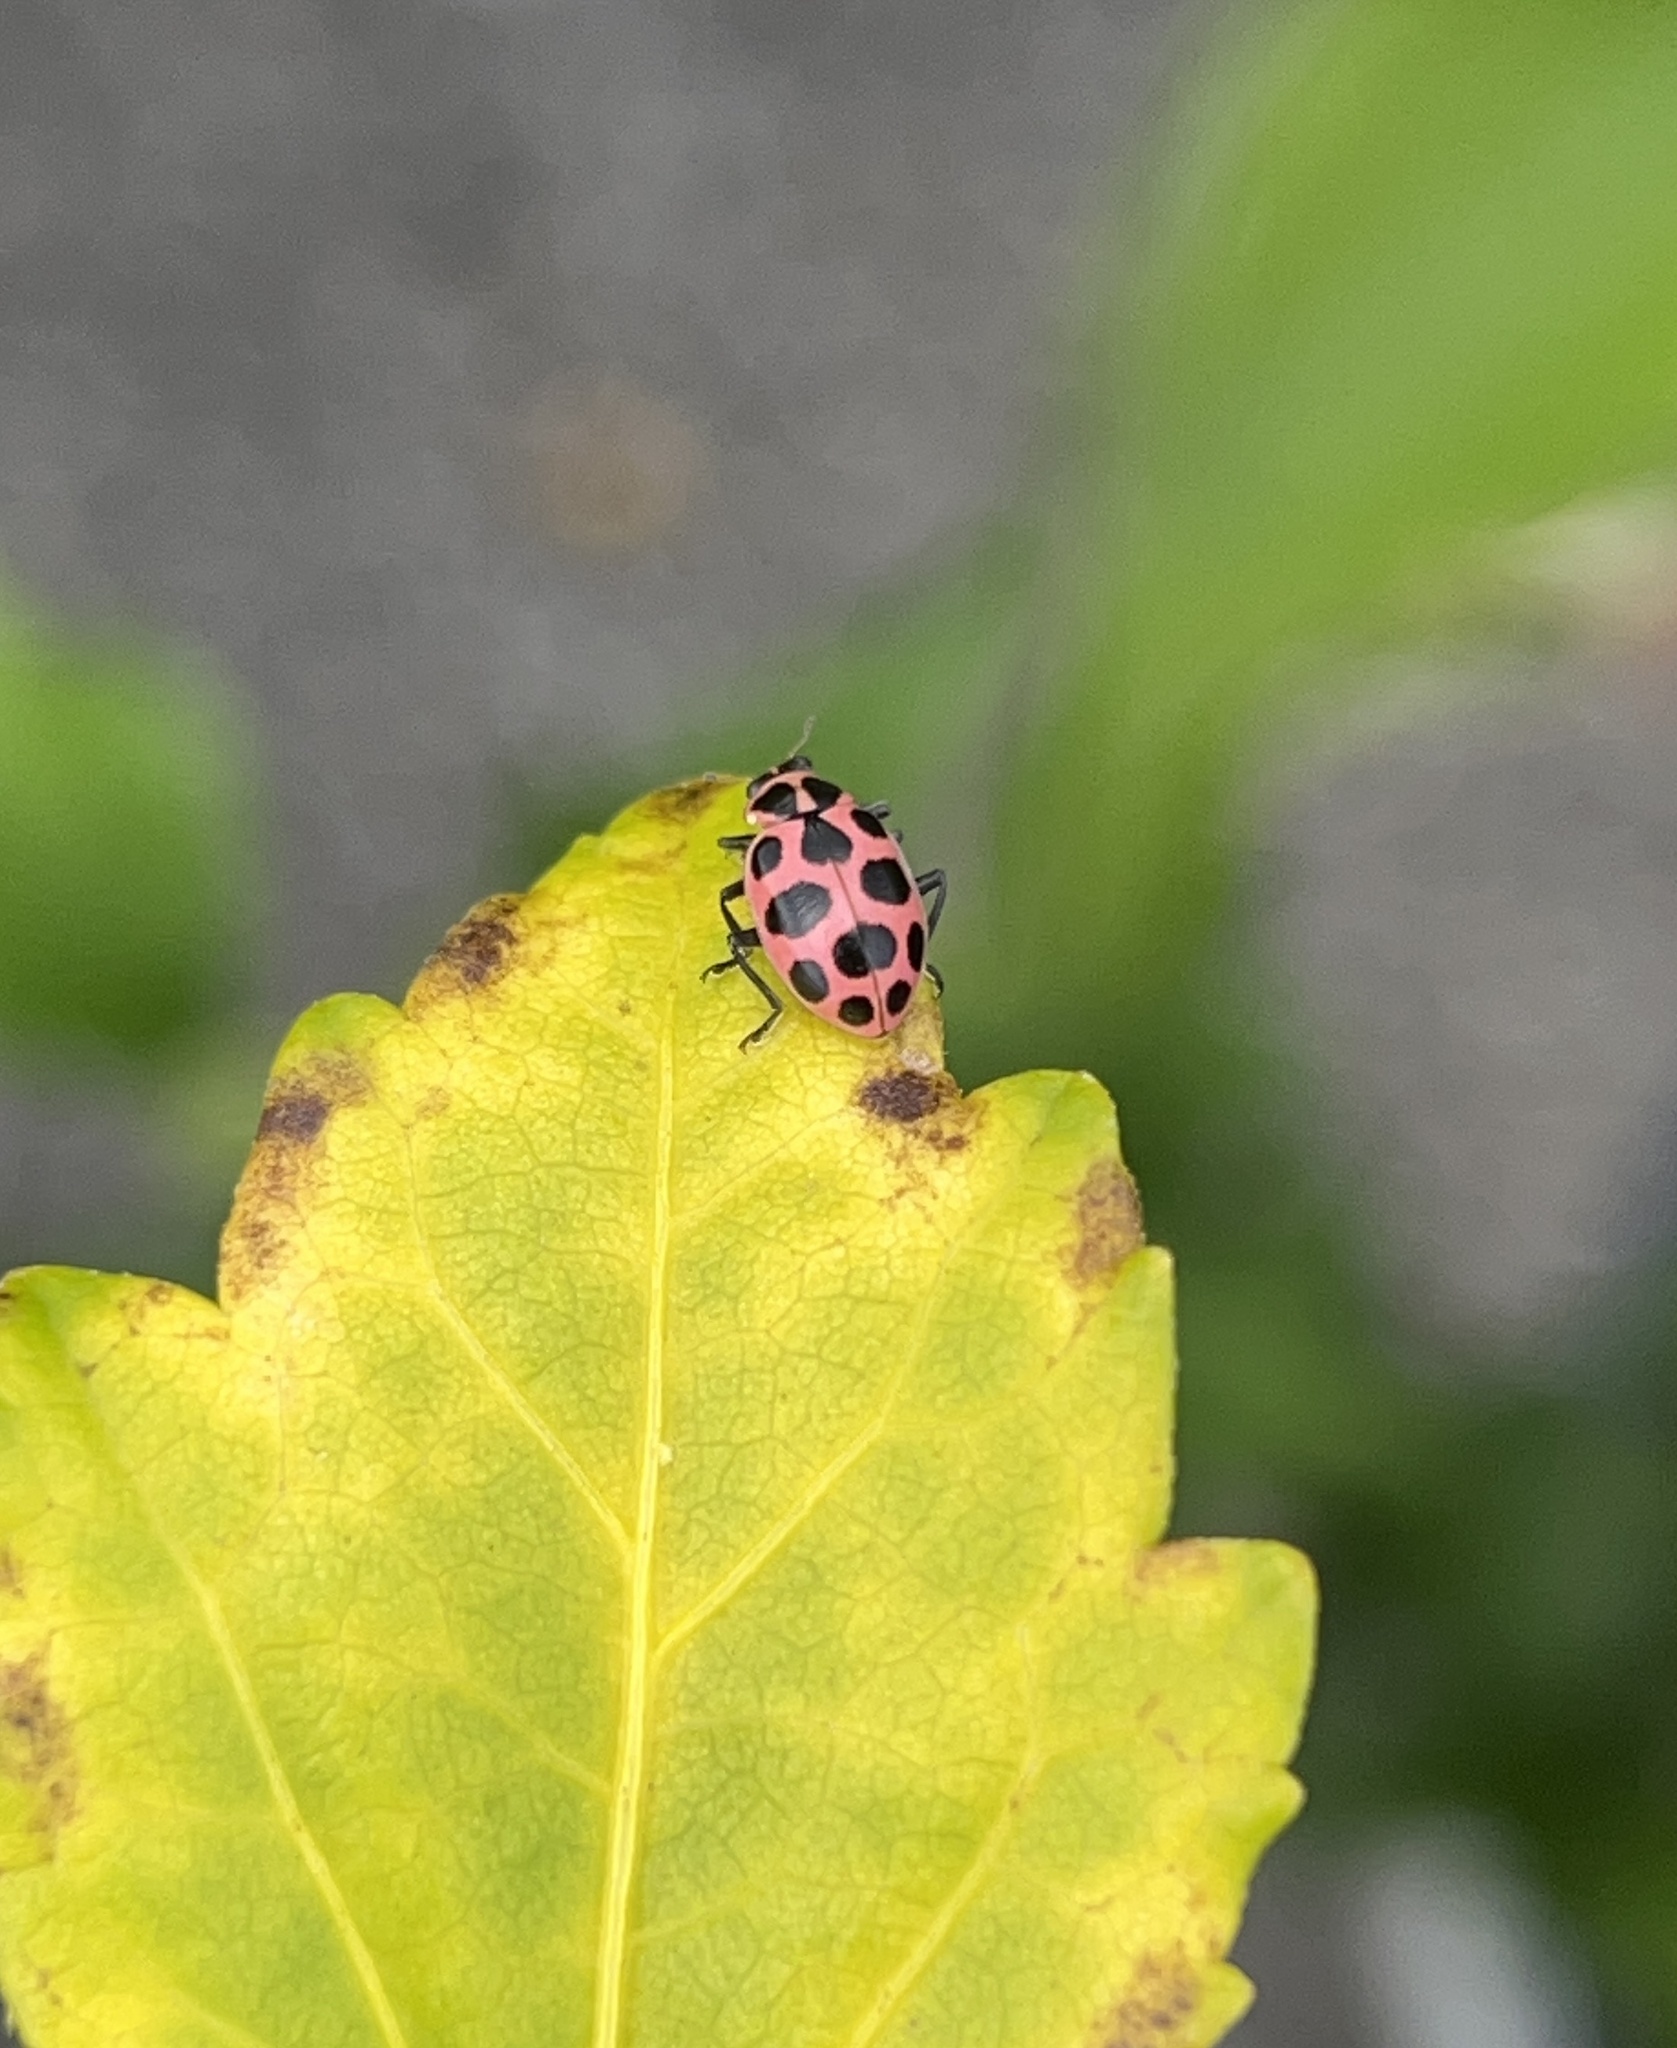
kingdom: Animalia
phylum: Arthropoda
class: Insecta
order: Coleoptera
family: Coccinellidae
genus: Coleomegilla
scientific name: Coleomegilla maculata
